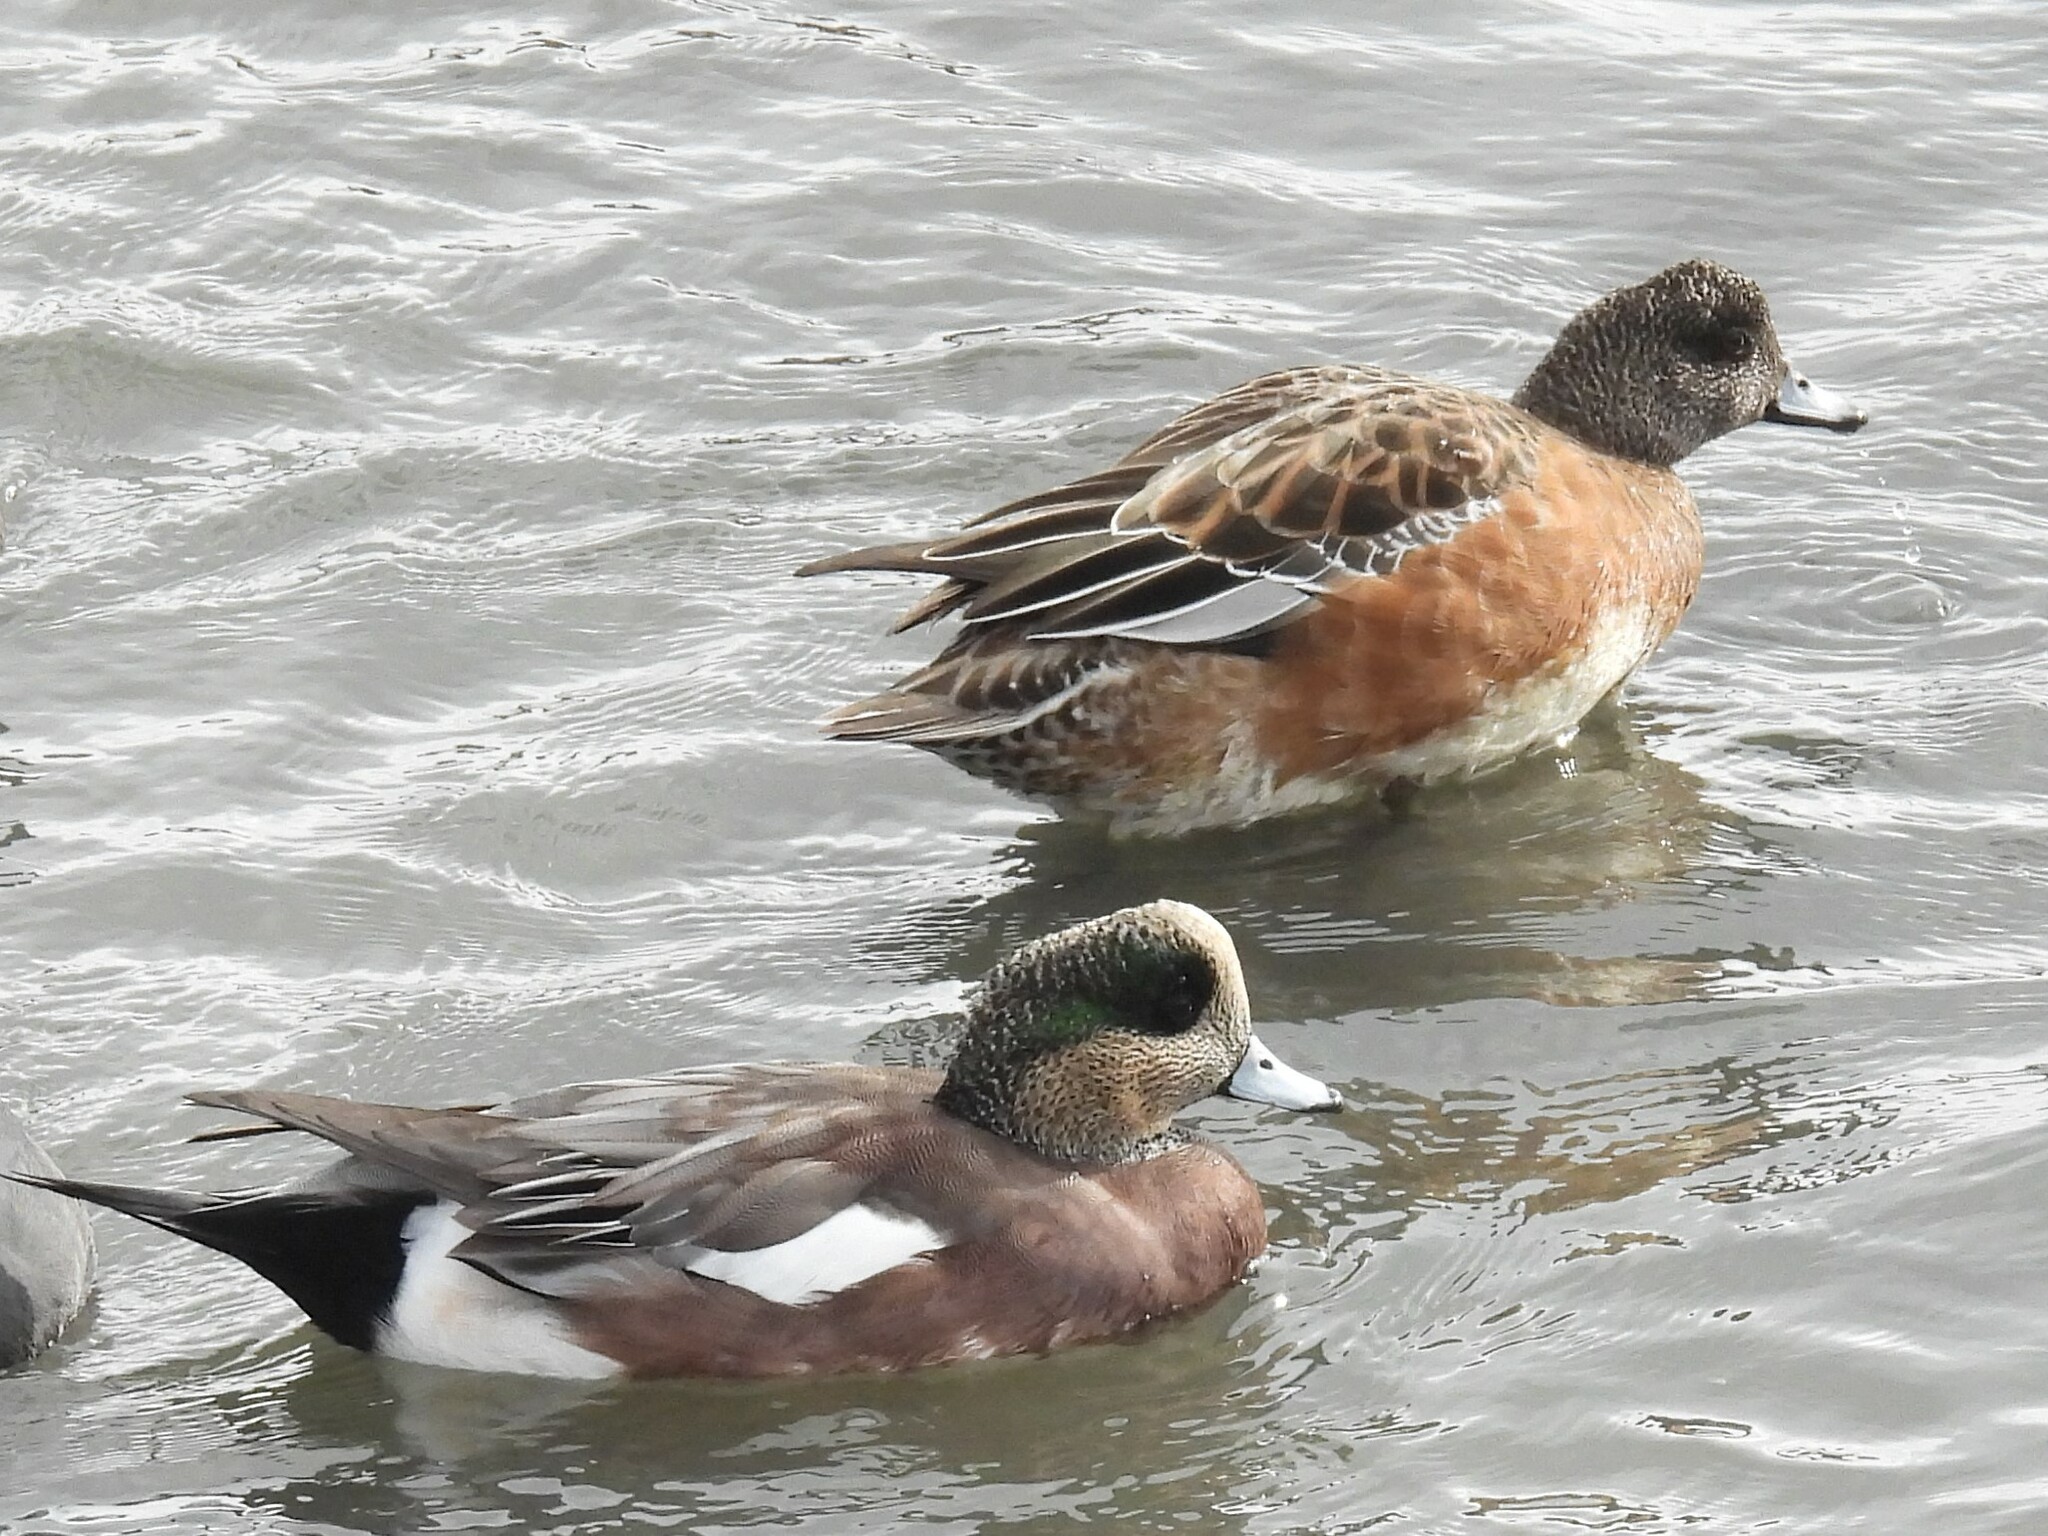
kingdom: Animalia
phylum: Chordata
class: Aves
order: Anseriformes
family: Anatidae
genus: Mareca
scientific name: Mareca americana
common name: American wigeon
